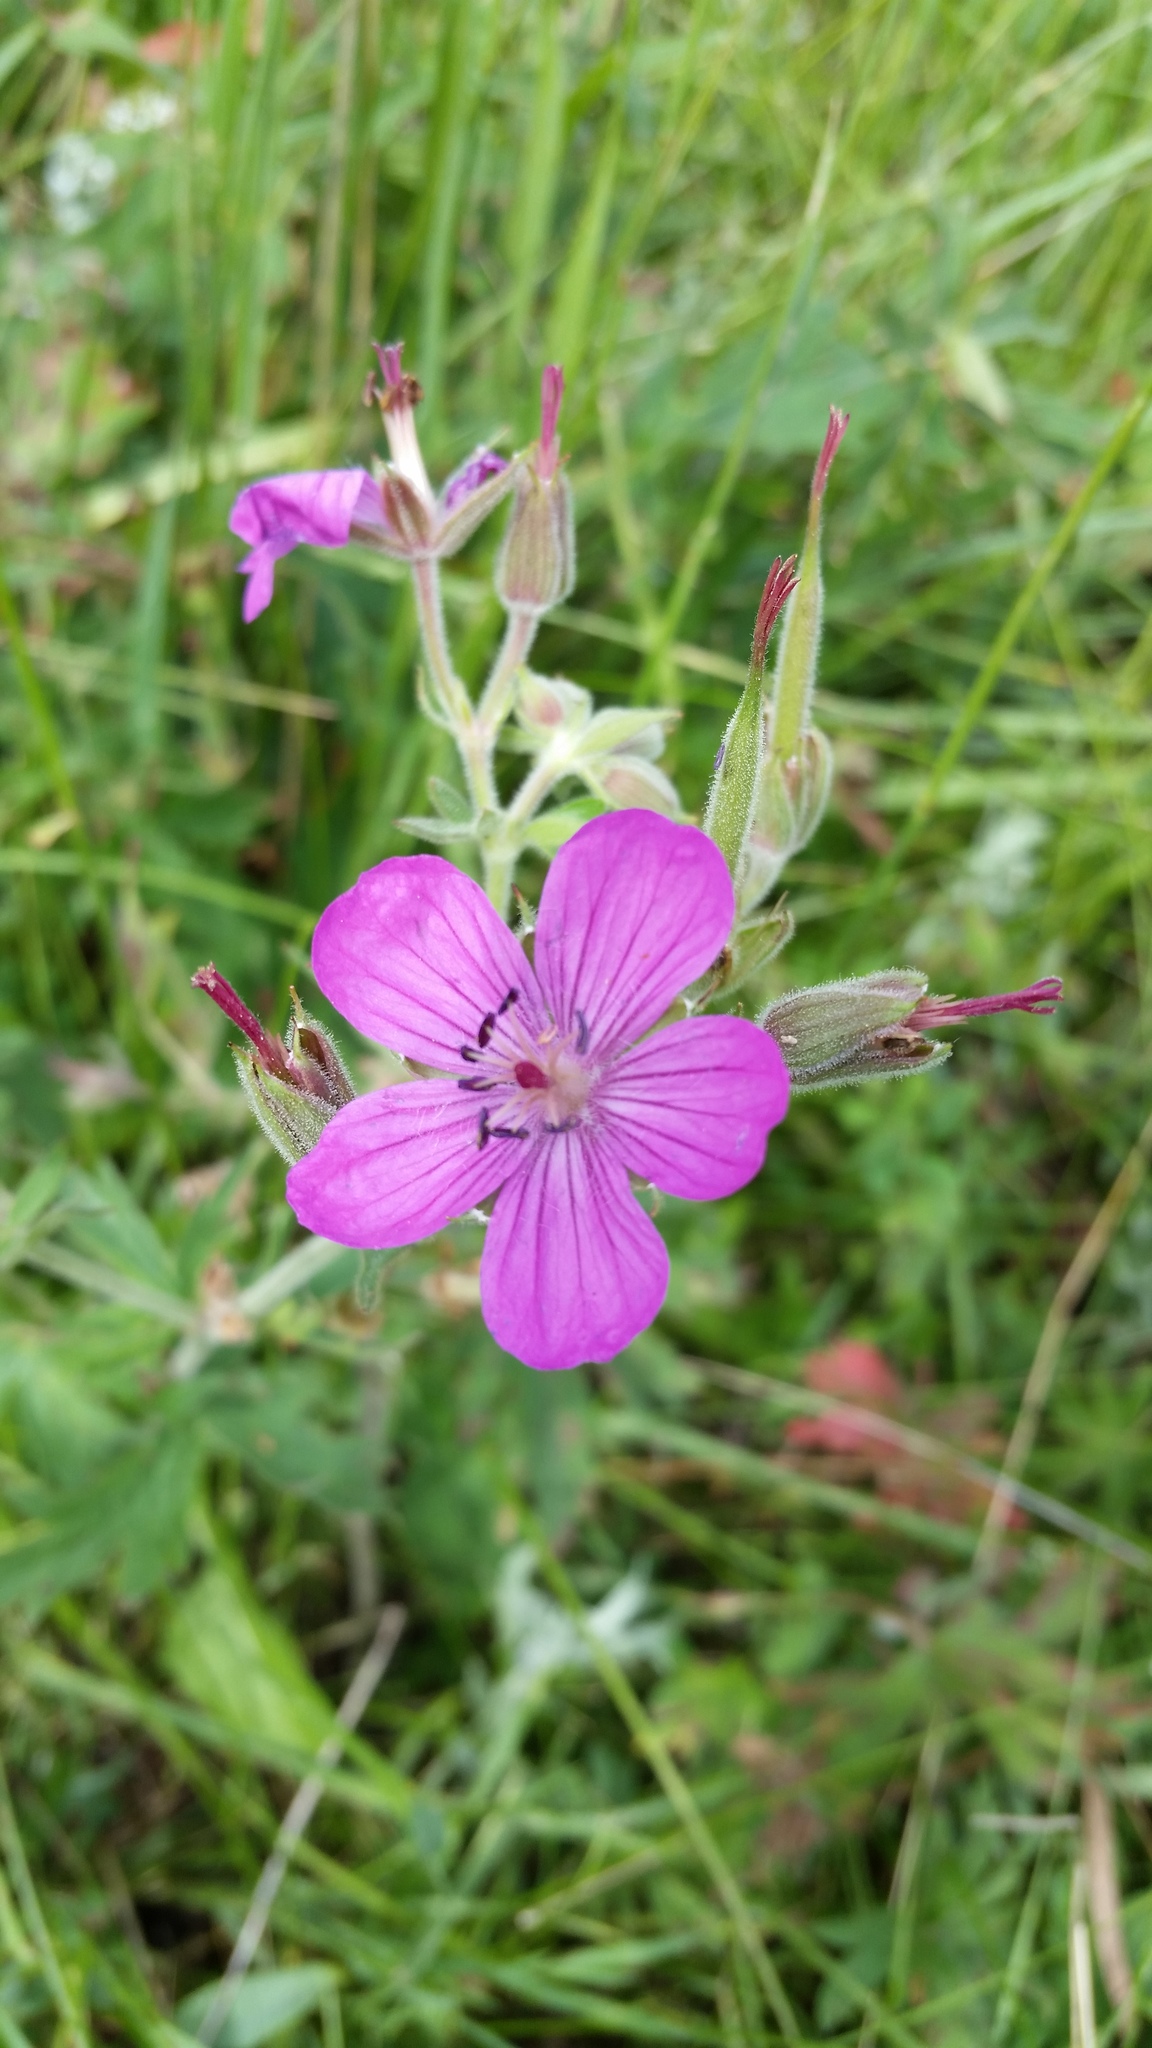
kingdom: Plantae
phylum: Tracheophyta
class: Magnoliopsida
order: Geraniales
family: Geraniaceae
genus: Geranium
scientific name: Geranium viscosissimum
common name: Purple geranium
